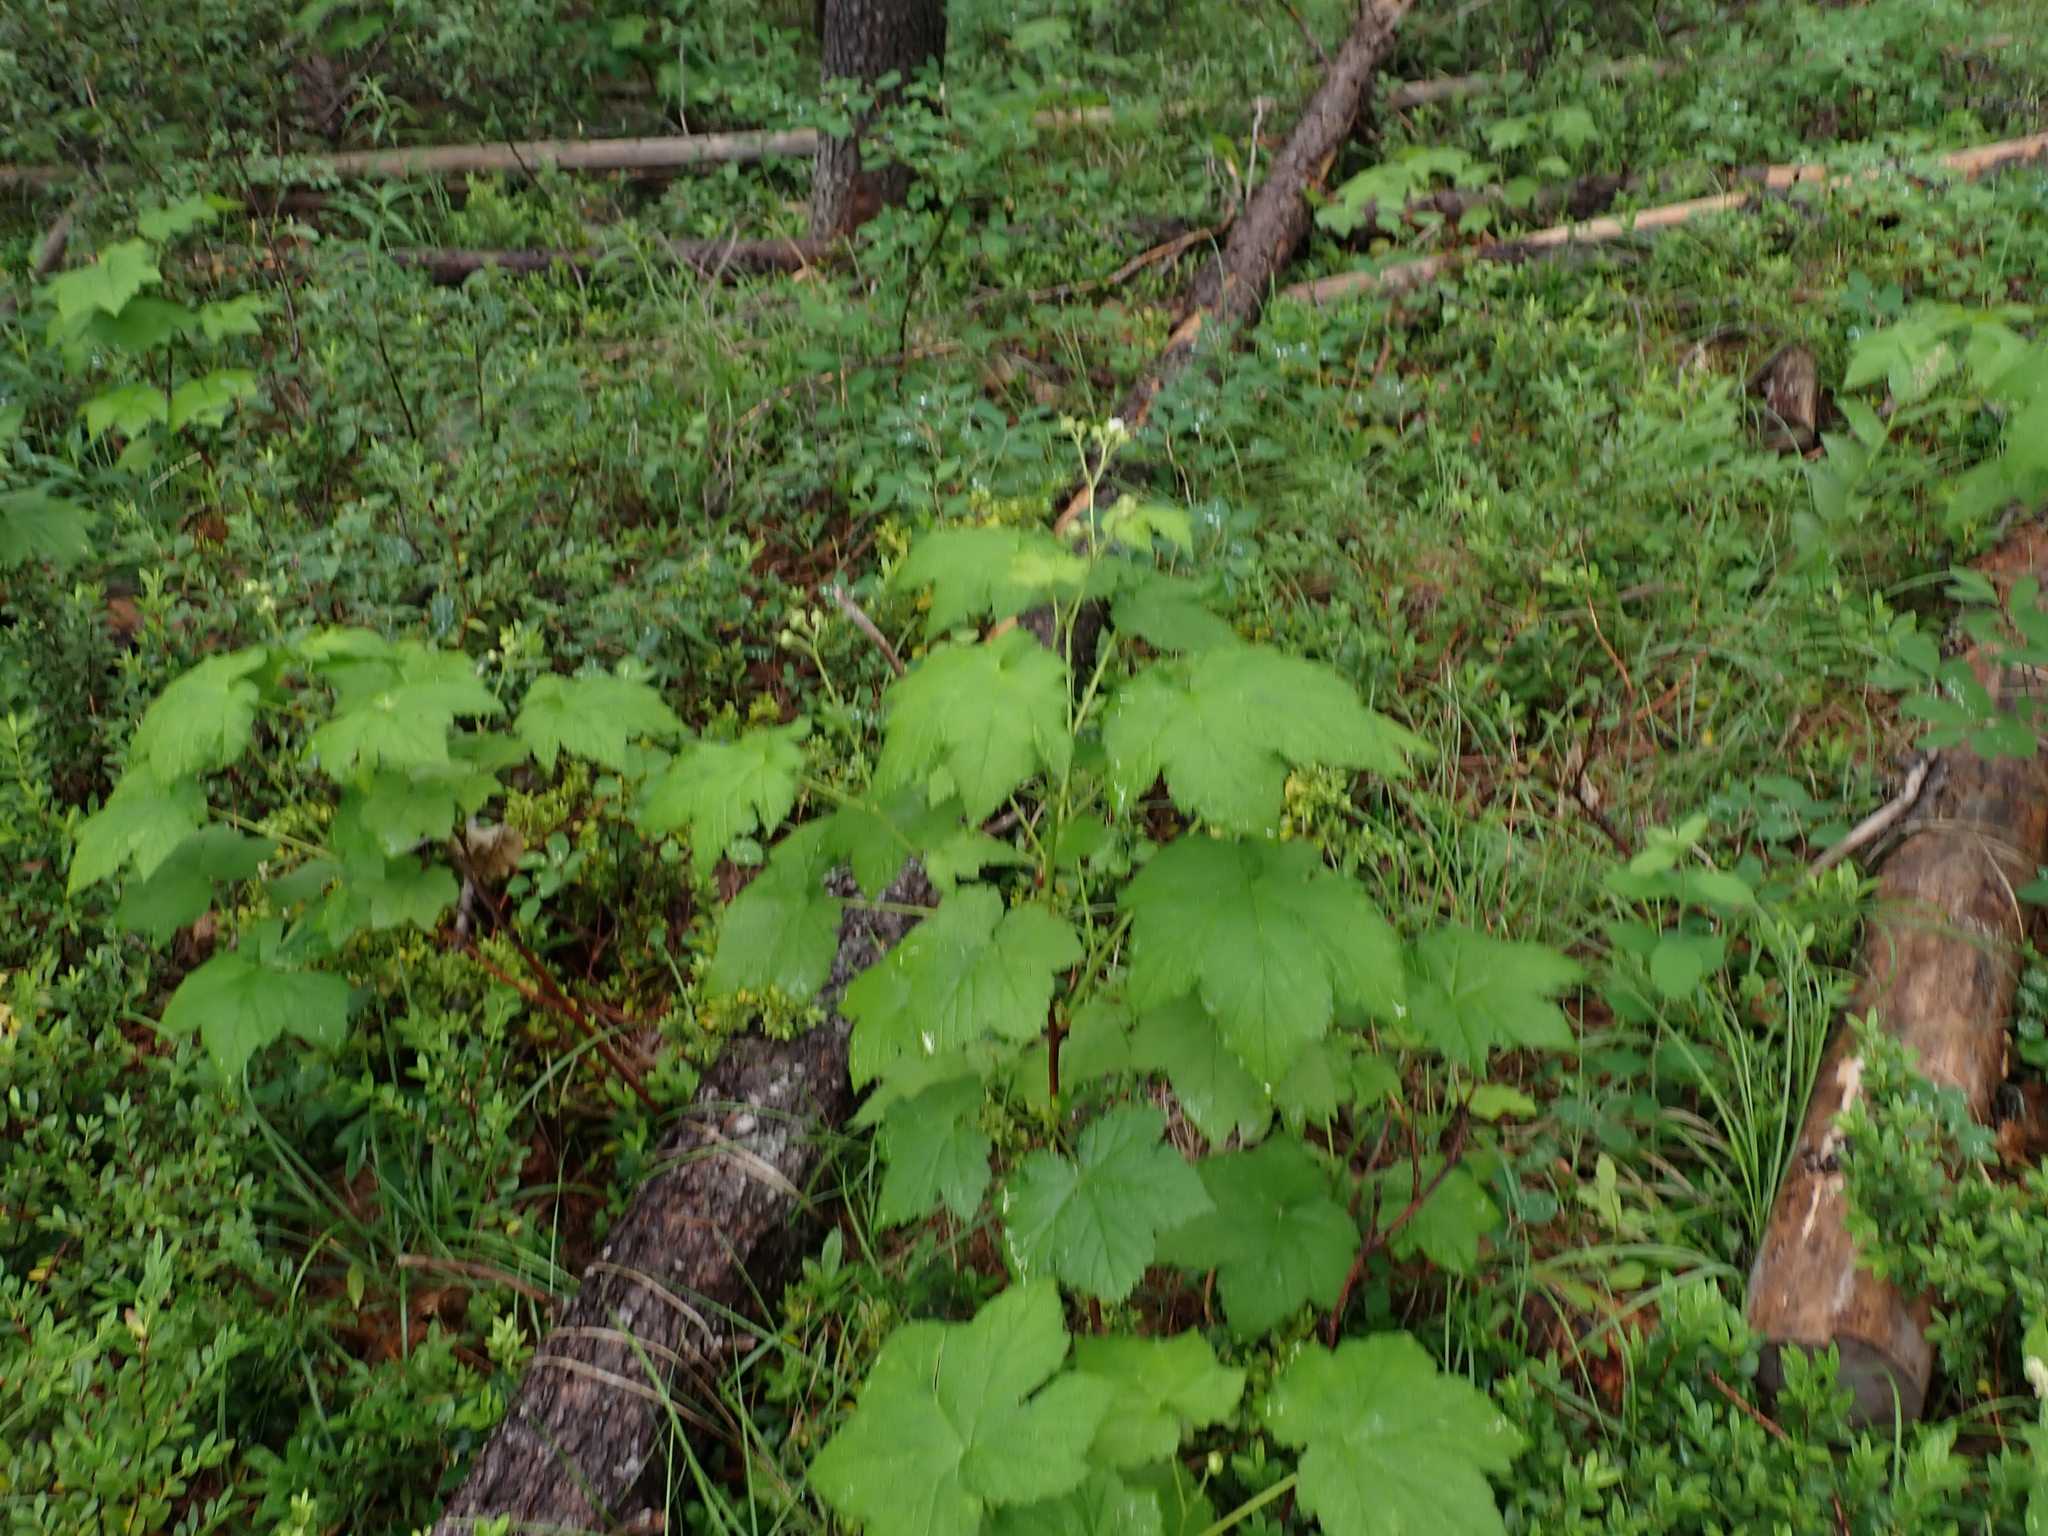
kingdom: Plantae
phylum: Tracheophyta
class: Magnoliopsida
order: Rosales
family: Rosaceae
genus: Rubus
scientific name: Rubus parviflorus
